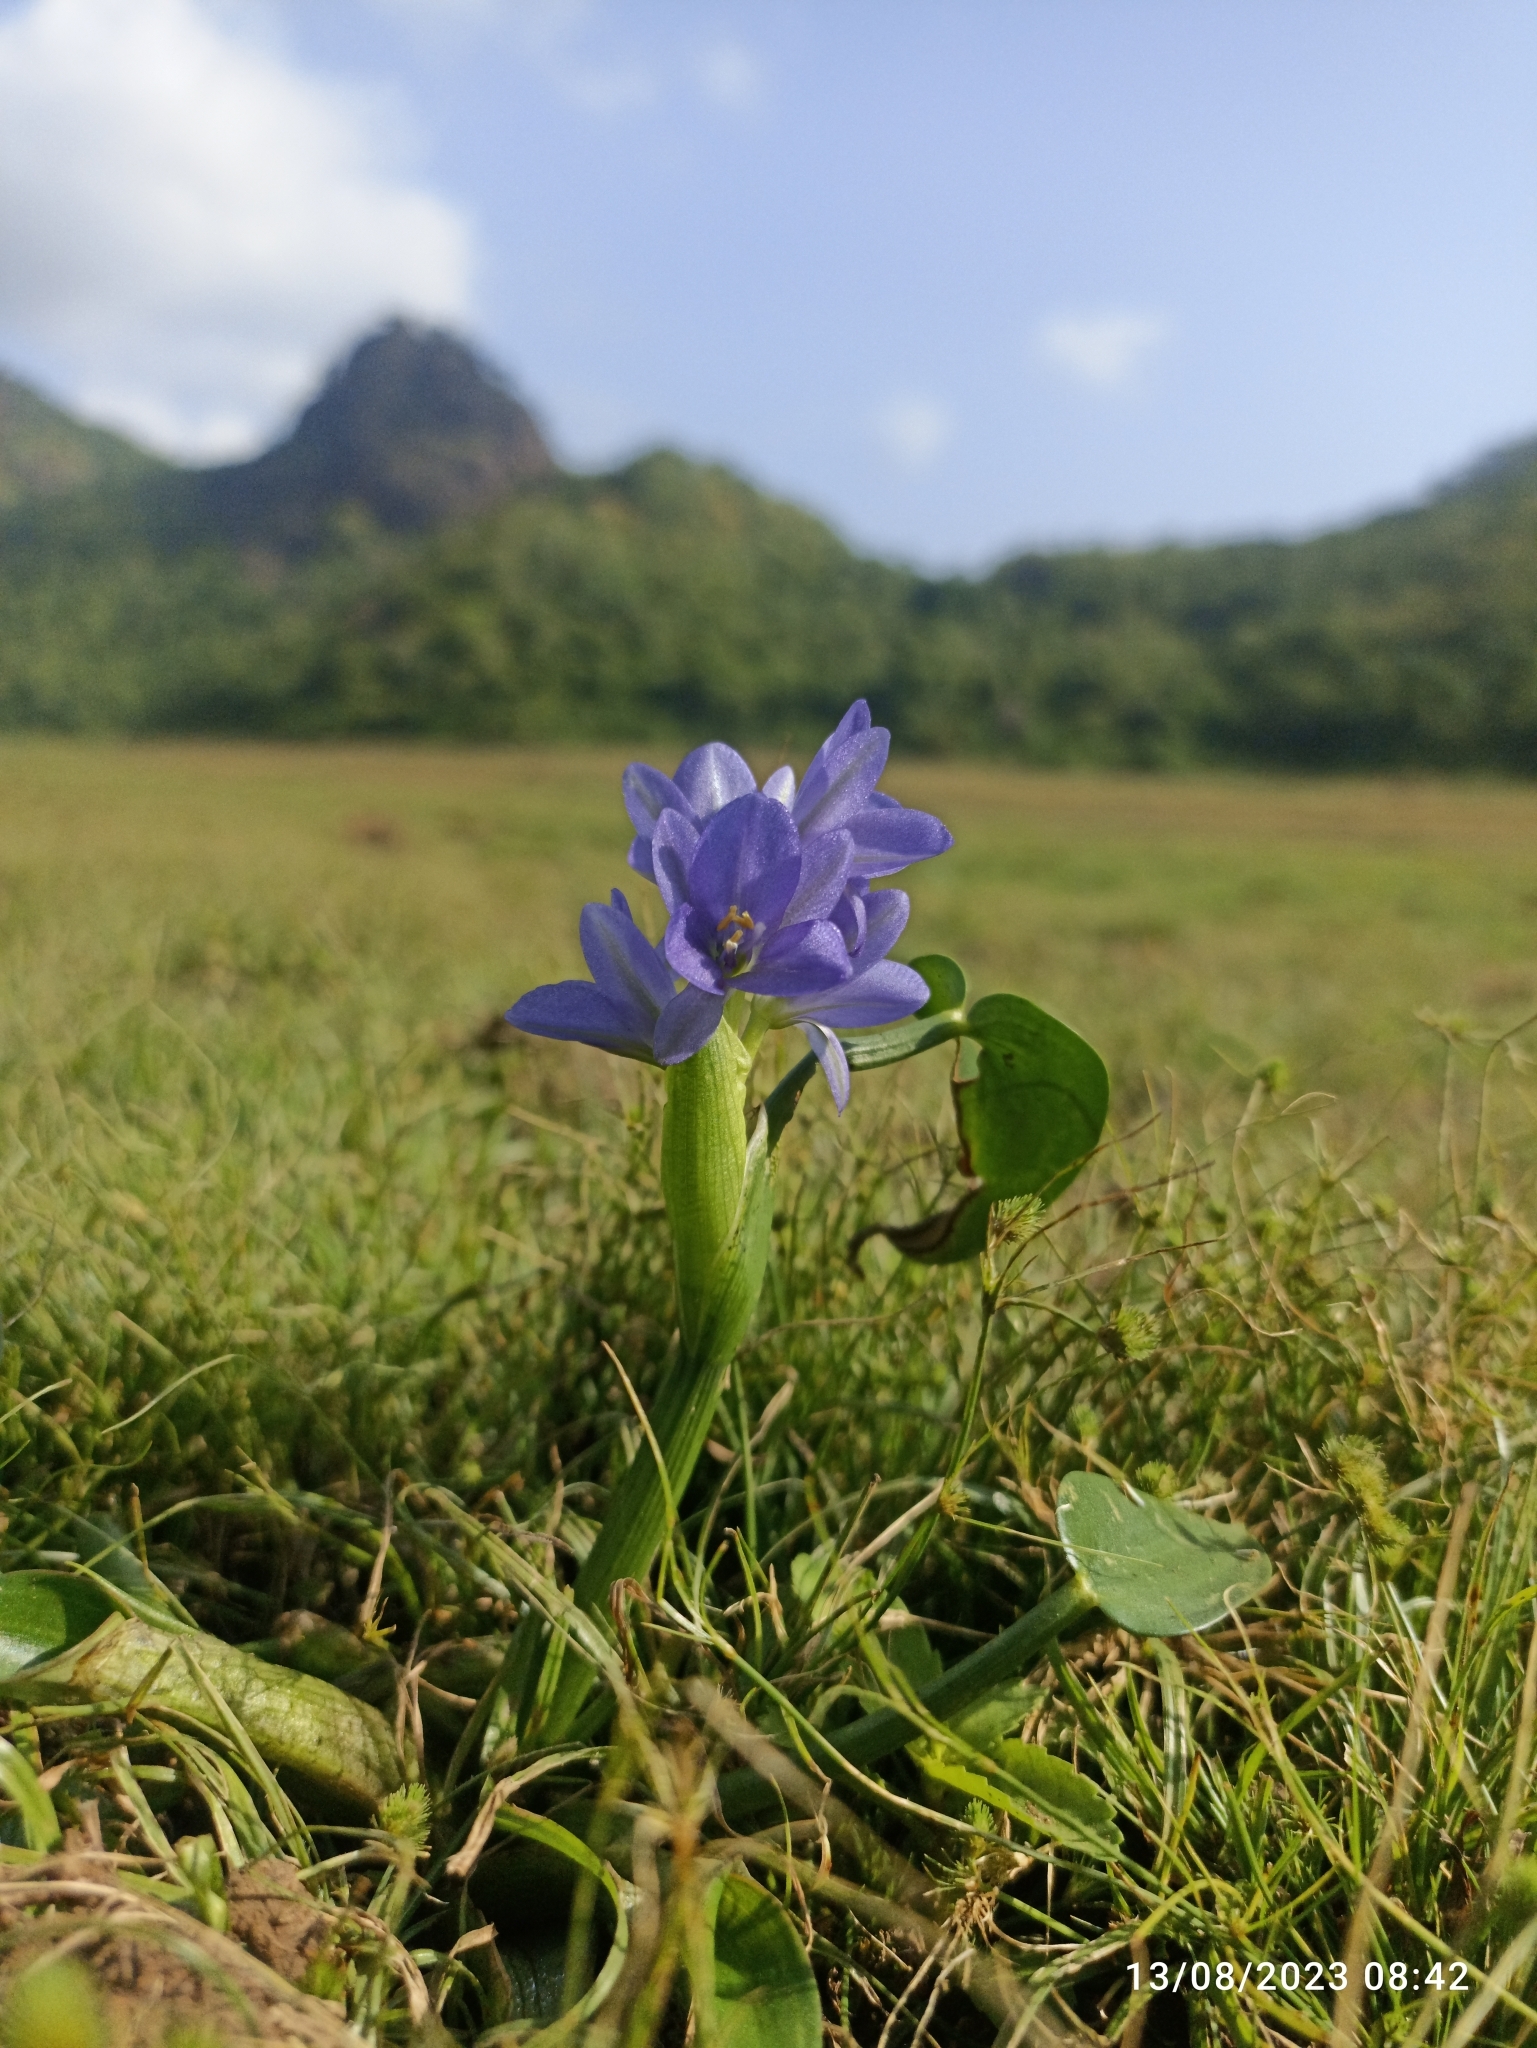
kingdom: Plantae
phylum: Tracheophyta
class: Liliopsida
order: Commelinales
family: Pontederiaceae
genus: Pontederia
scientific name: Pontederia vaginalis
